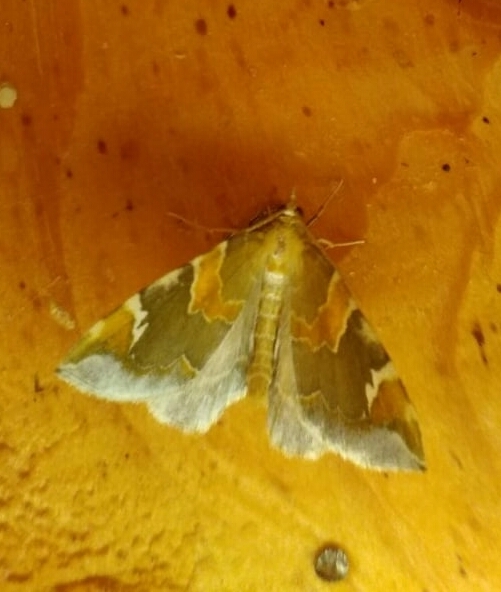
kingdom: Animalia
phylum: Arthropoda
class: Insecta
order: Lepidoptera
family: Geometridae
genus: Eulithis
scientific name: Eulithis pyropata
